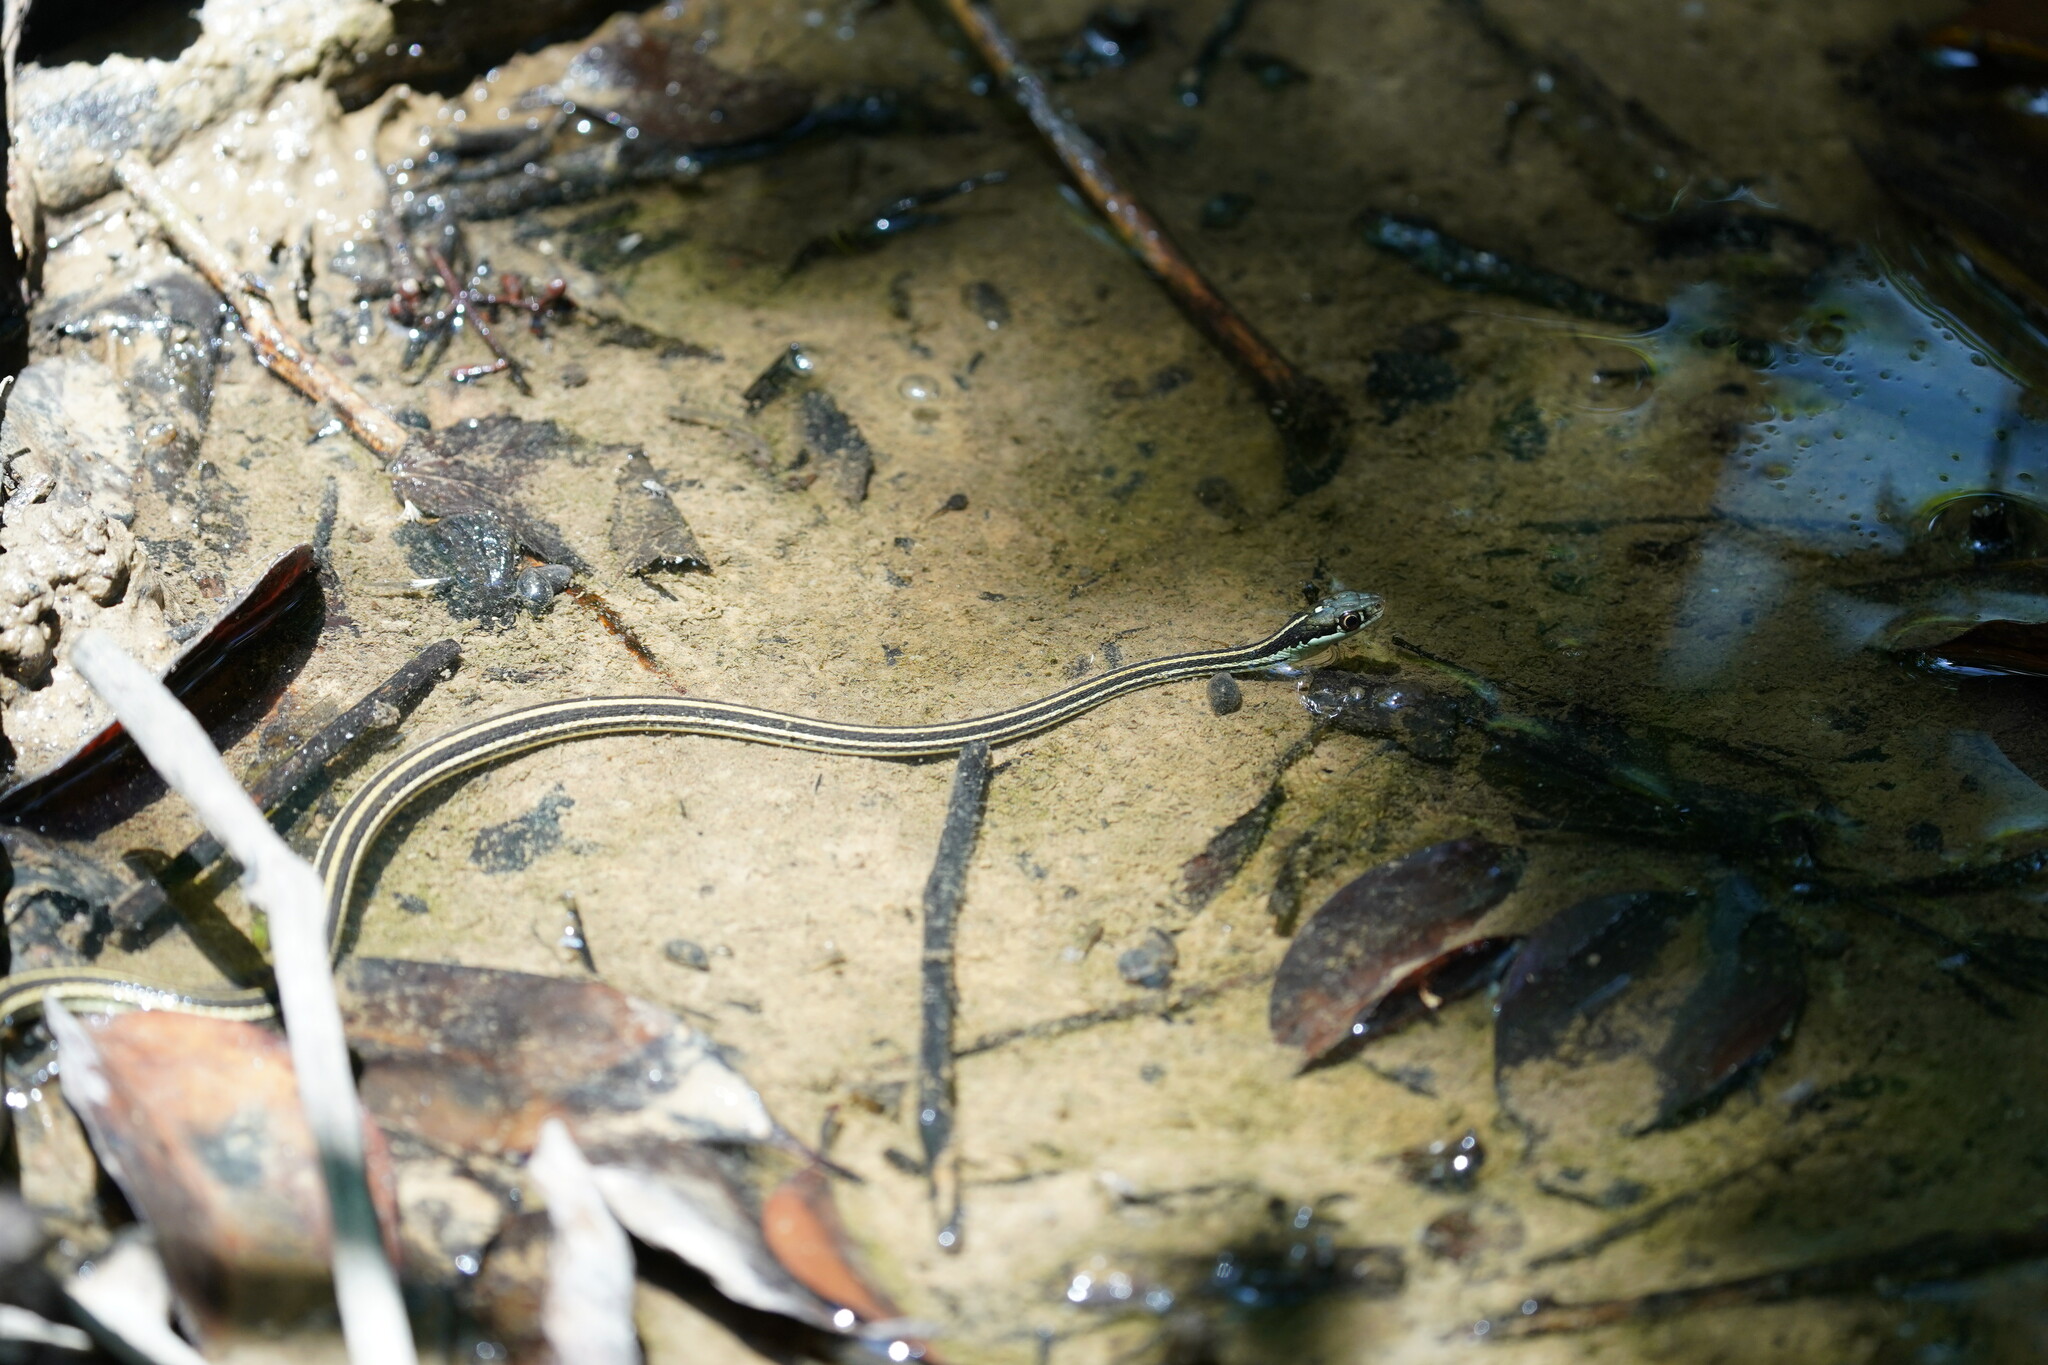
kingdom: Animalia
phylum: Chordata
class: Squamata
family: Colubridae
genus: Thamnophis
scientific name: Thamnophis proximus
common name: Western ribbon snake
